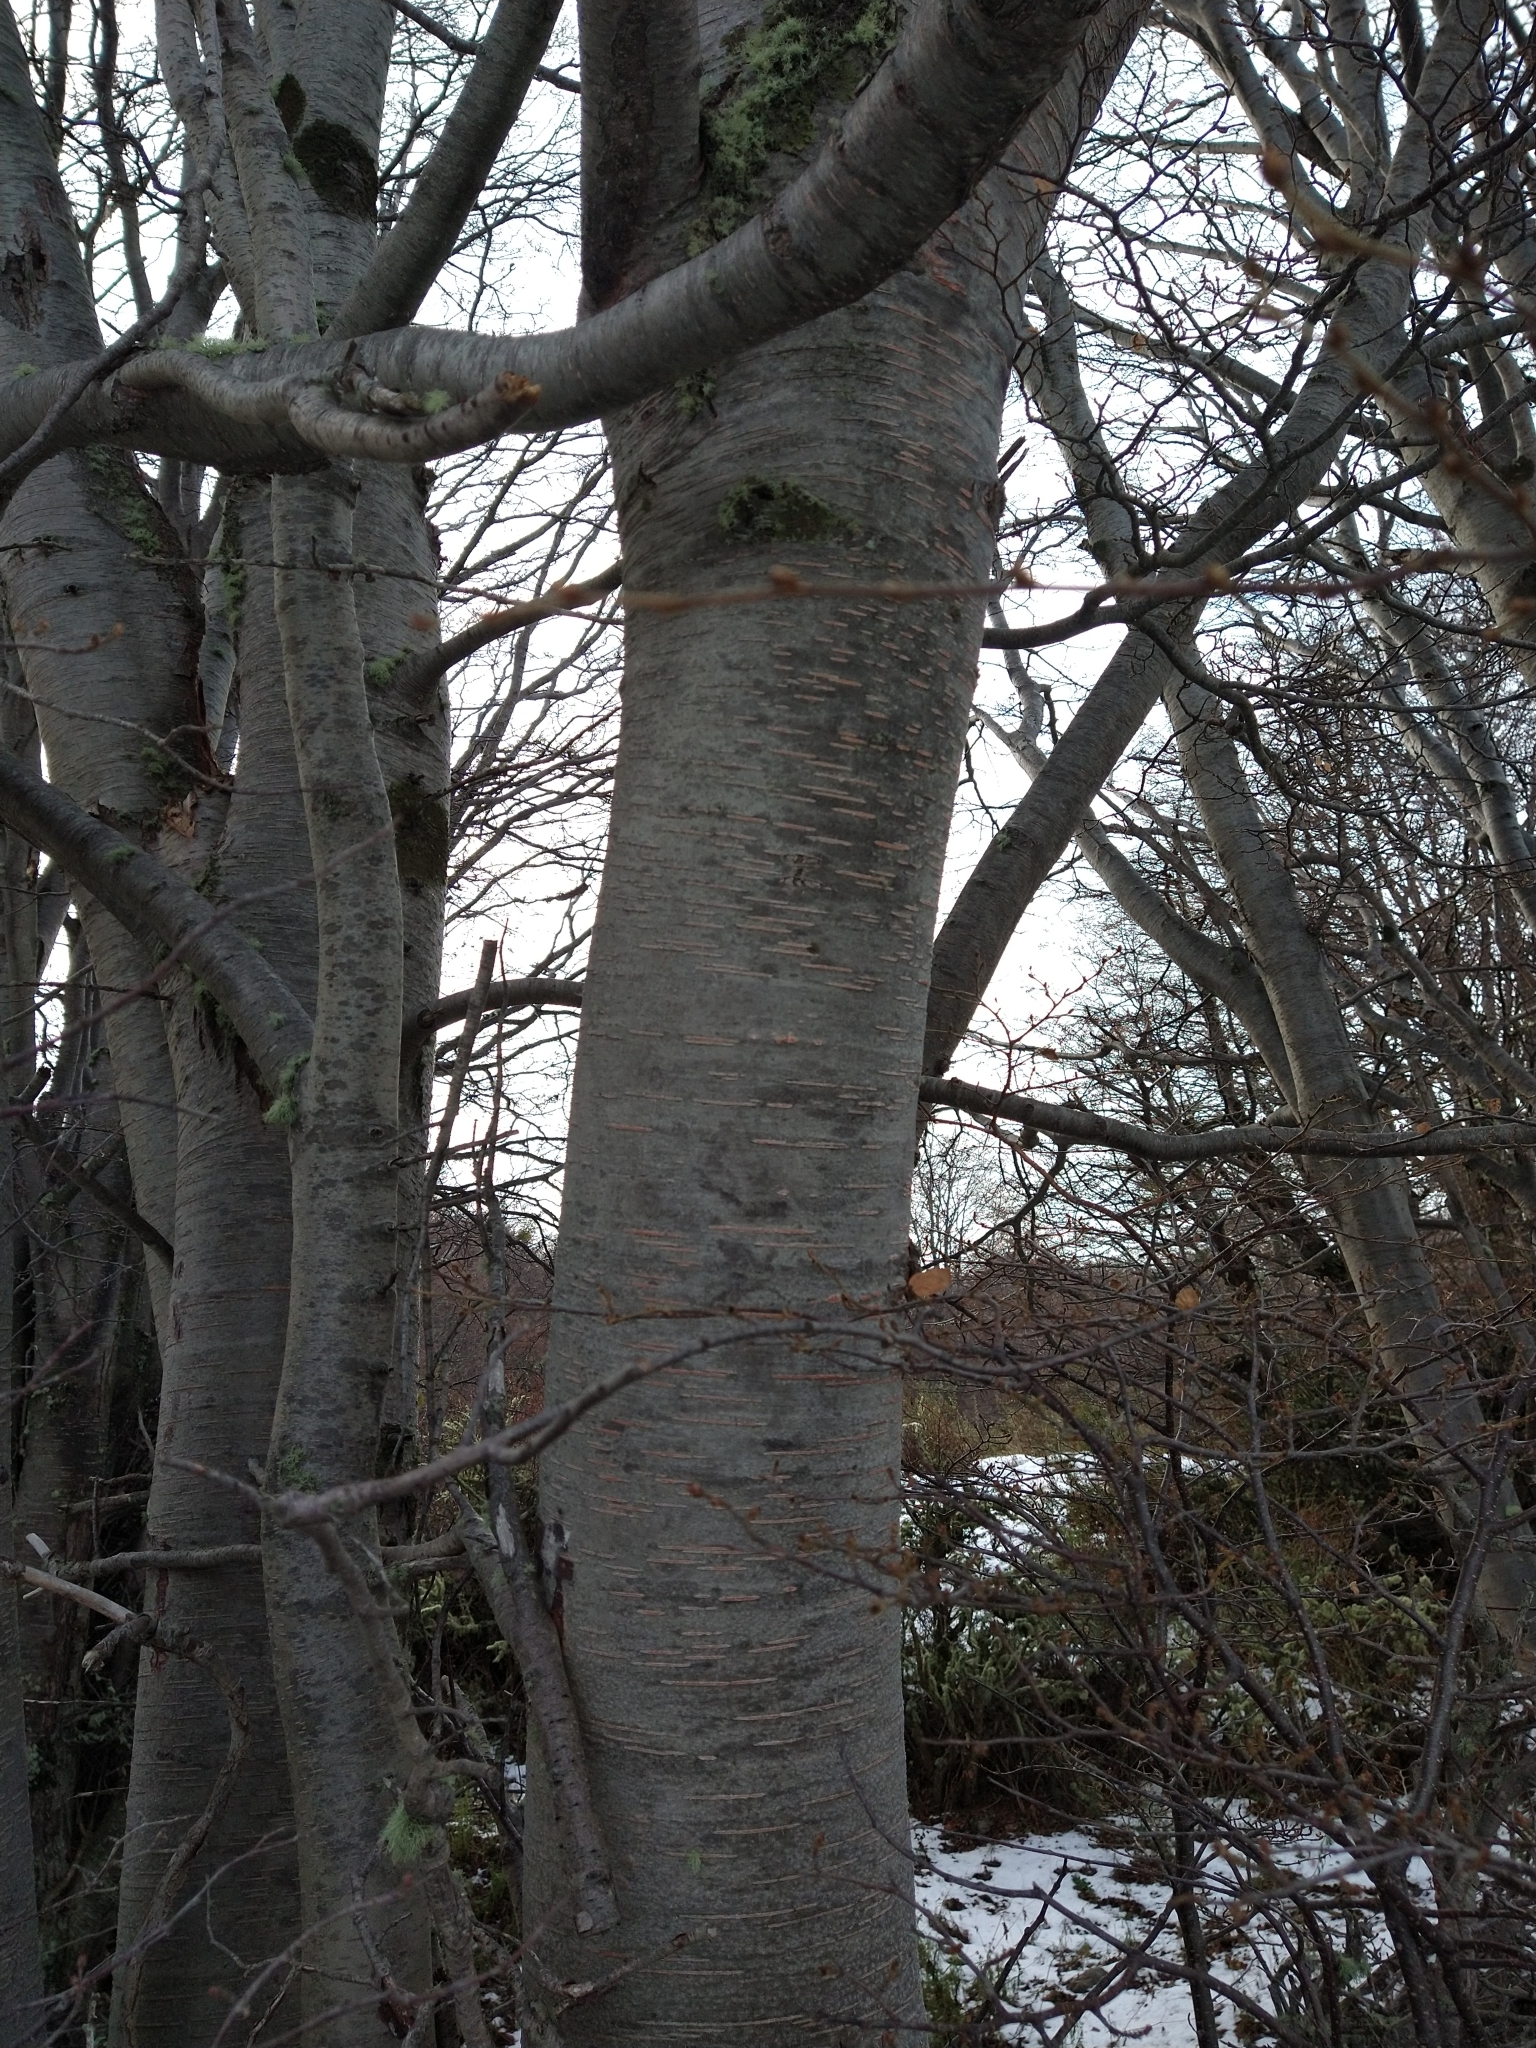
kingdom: Plantae
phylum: Tracheophyta
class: Magnoliopsida
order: Fagales
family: Nothofagaceae
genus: Nothofagus
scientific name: Nothofagus pumilio
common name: Lenga beech
